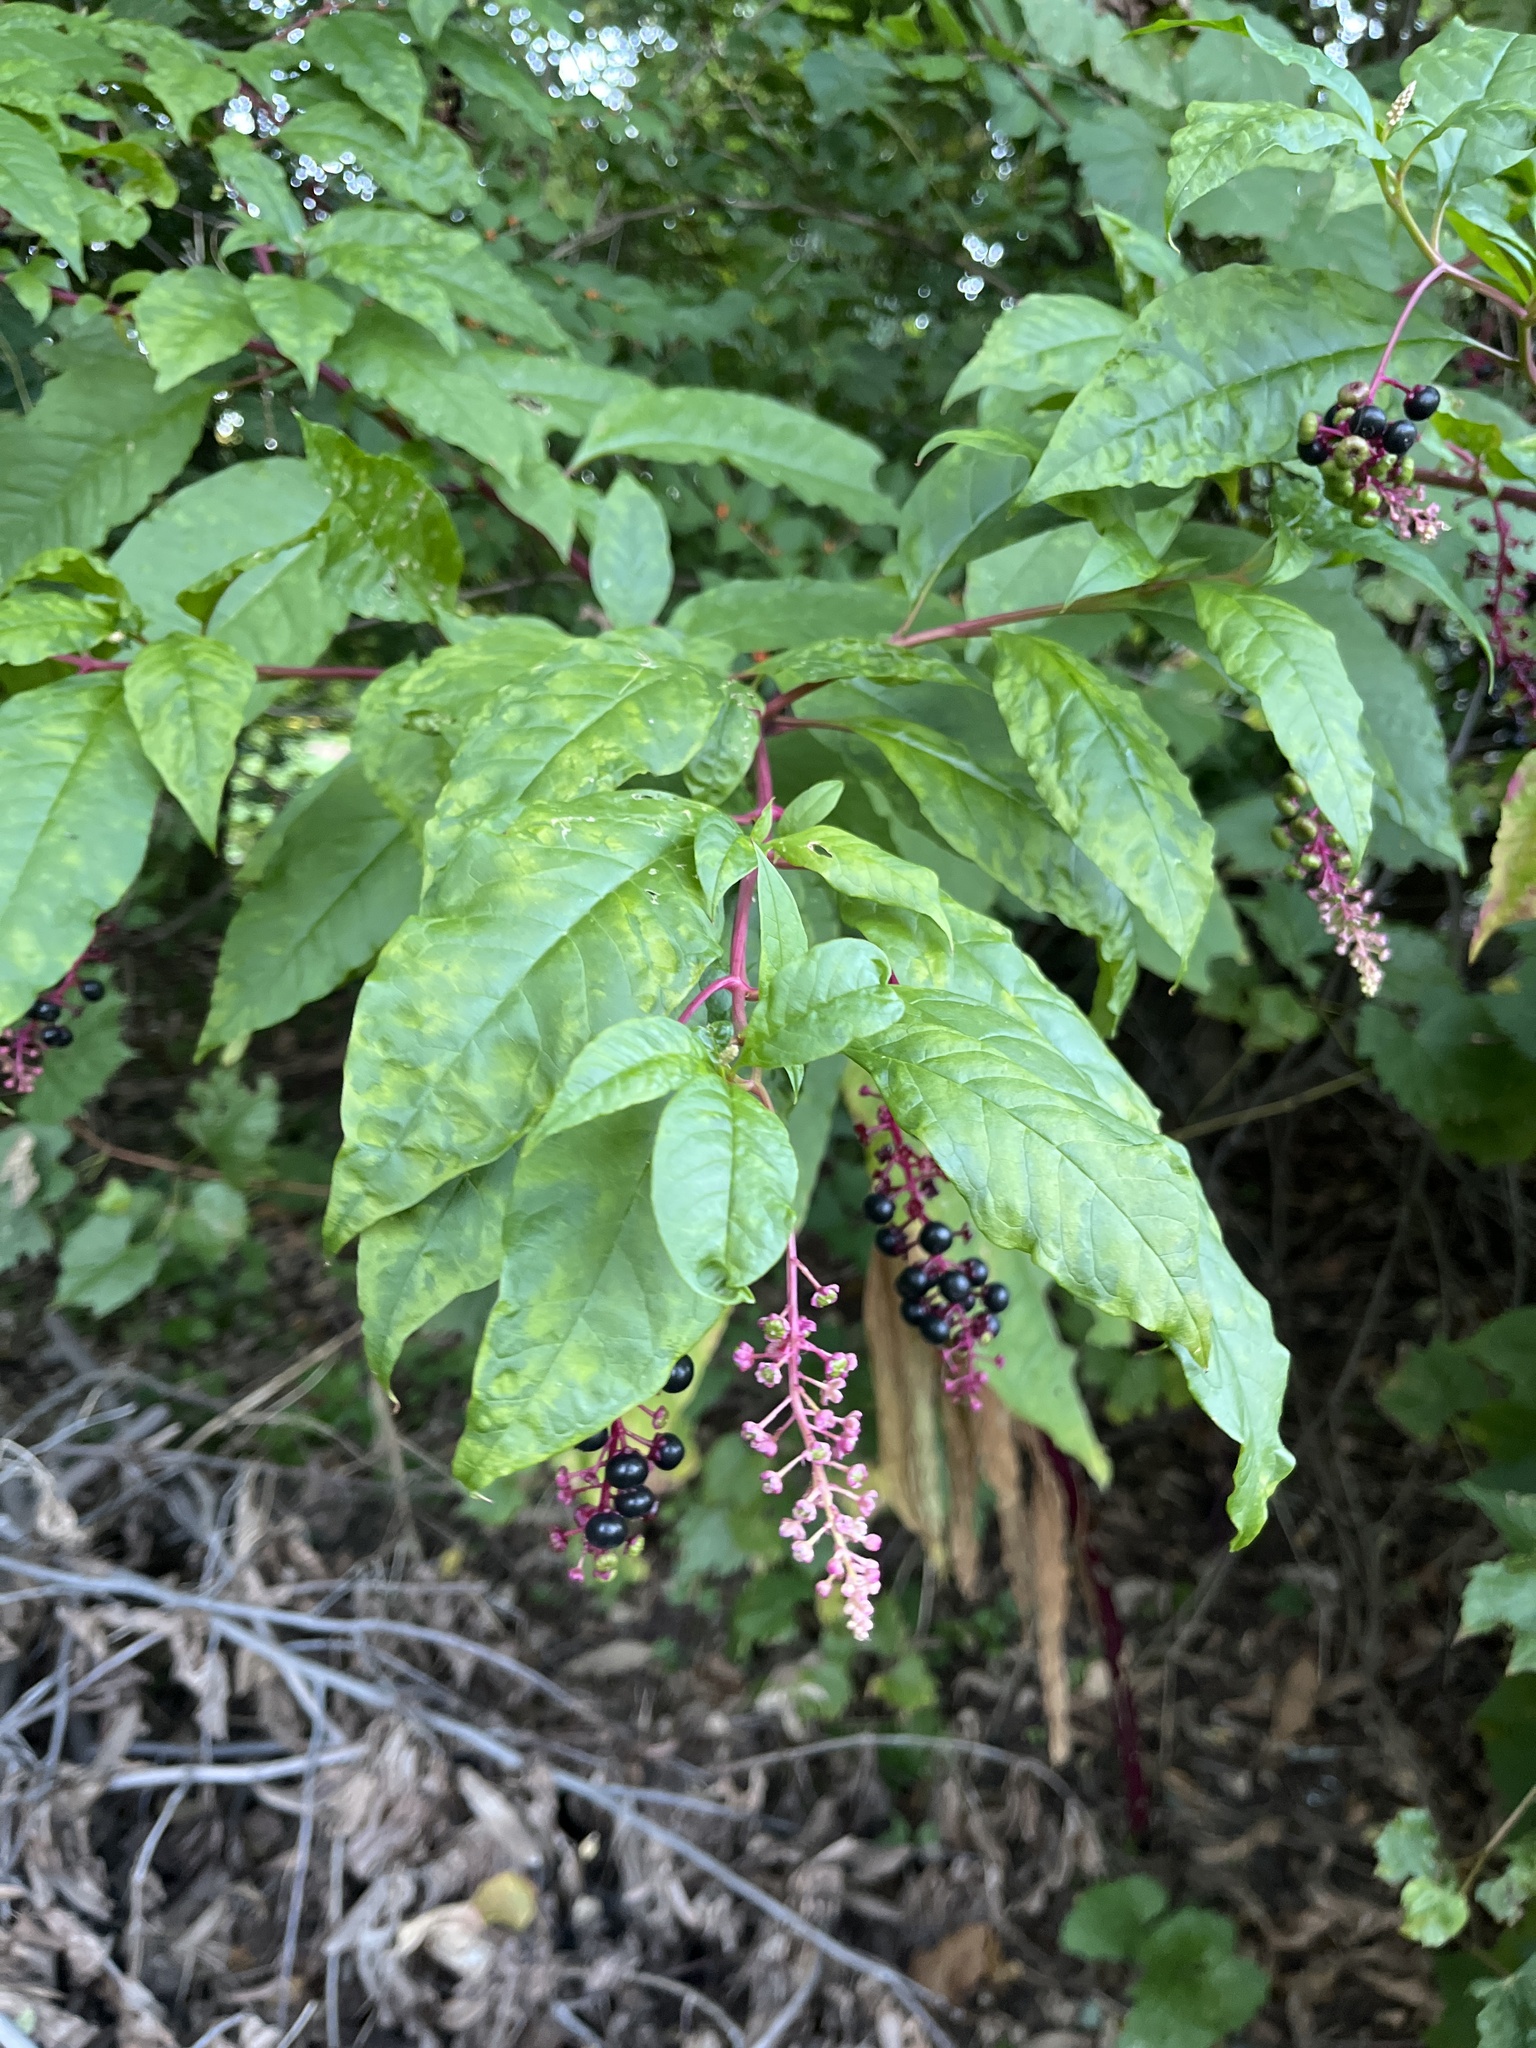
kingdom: Plantae
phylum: Tracheophyta
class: Magnoliopsida
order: Caryophyllales
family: Phytolaccaceae
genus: Phytolacca
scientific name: Phytolacca americana
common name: American pokeweed
